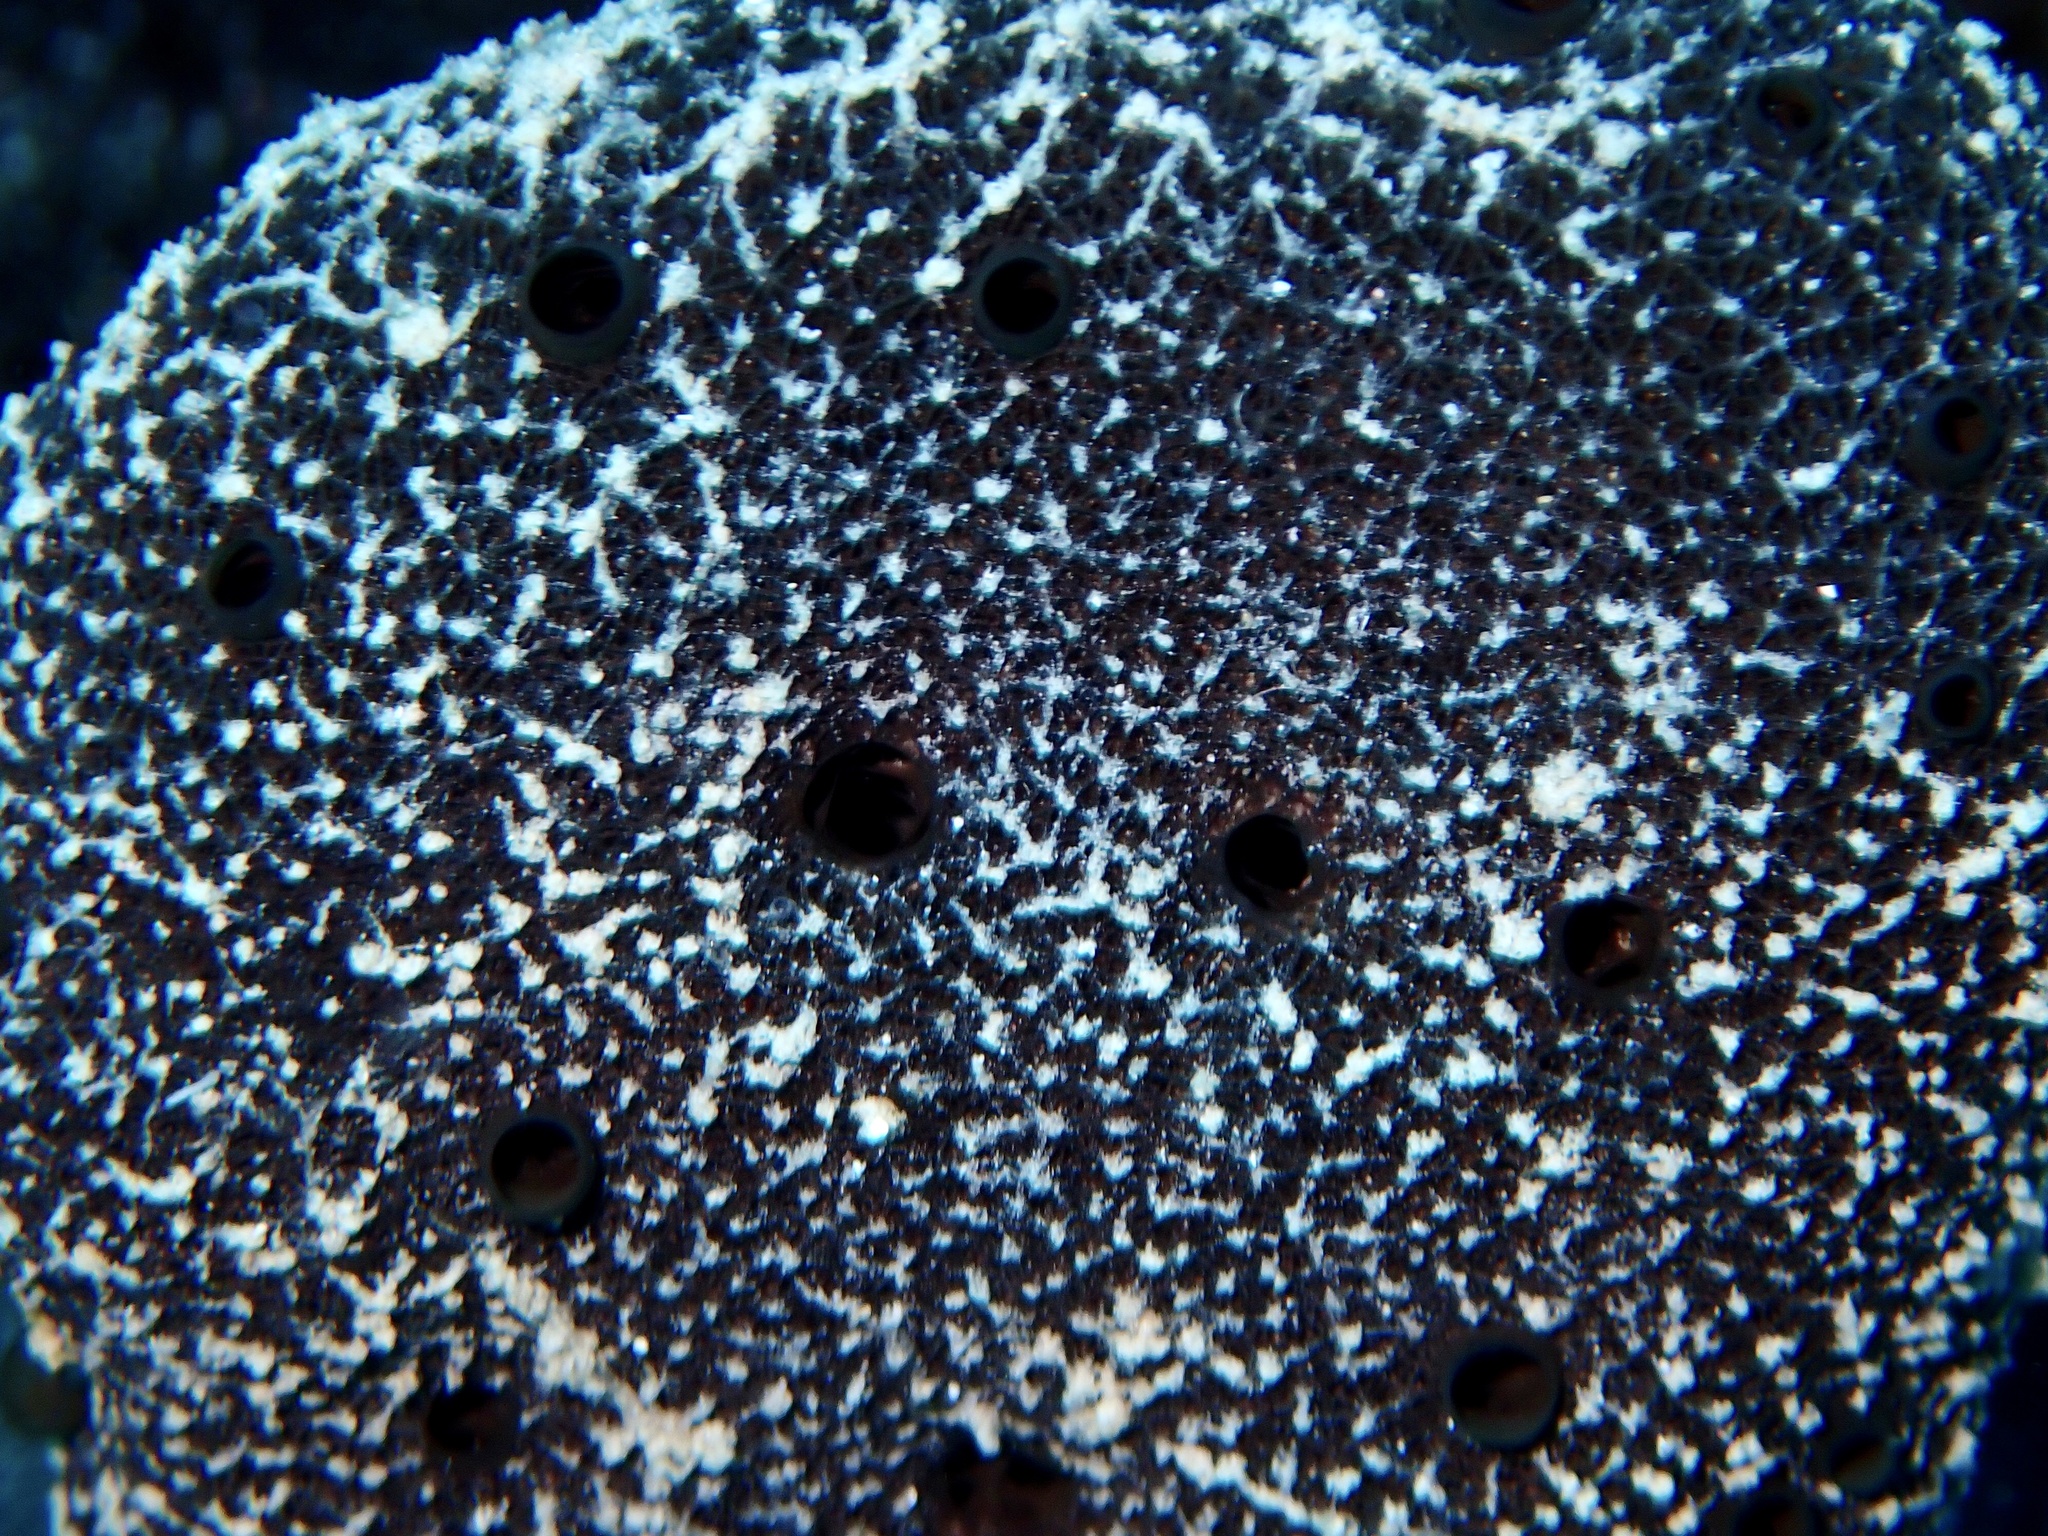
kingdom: Animalia
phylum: Porifera
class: Demospongiae
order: Dictyoceratida
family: Thorectidae
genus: Hyrtios
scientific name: Hyrtios erectus
